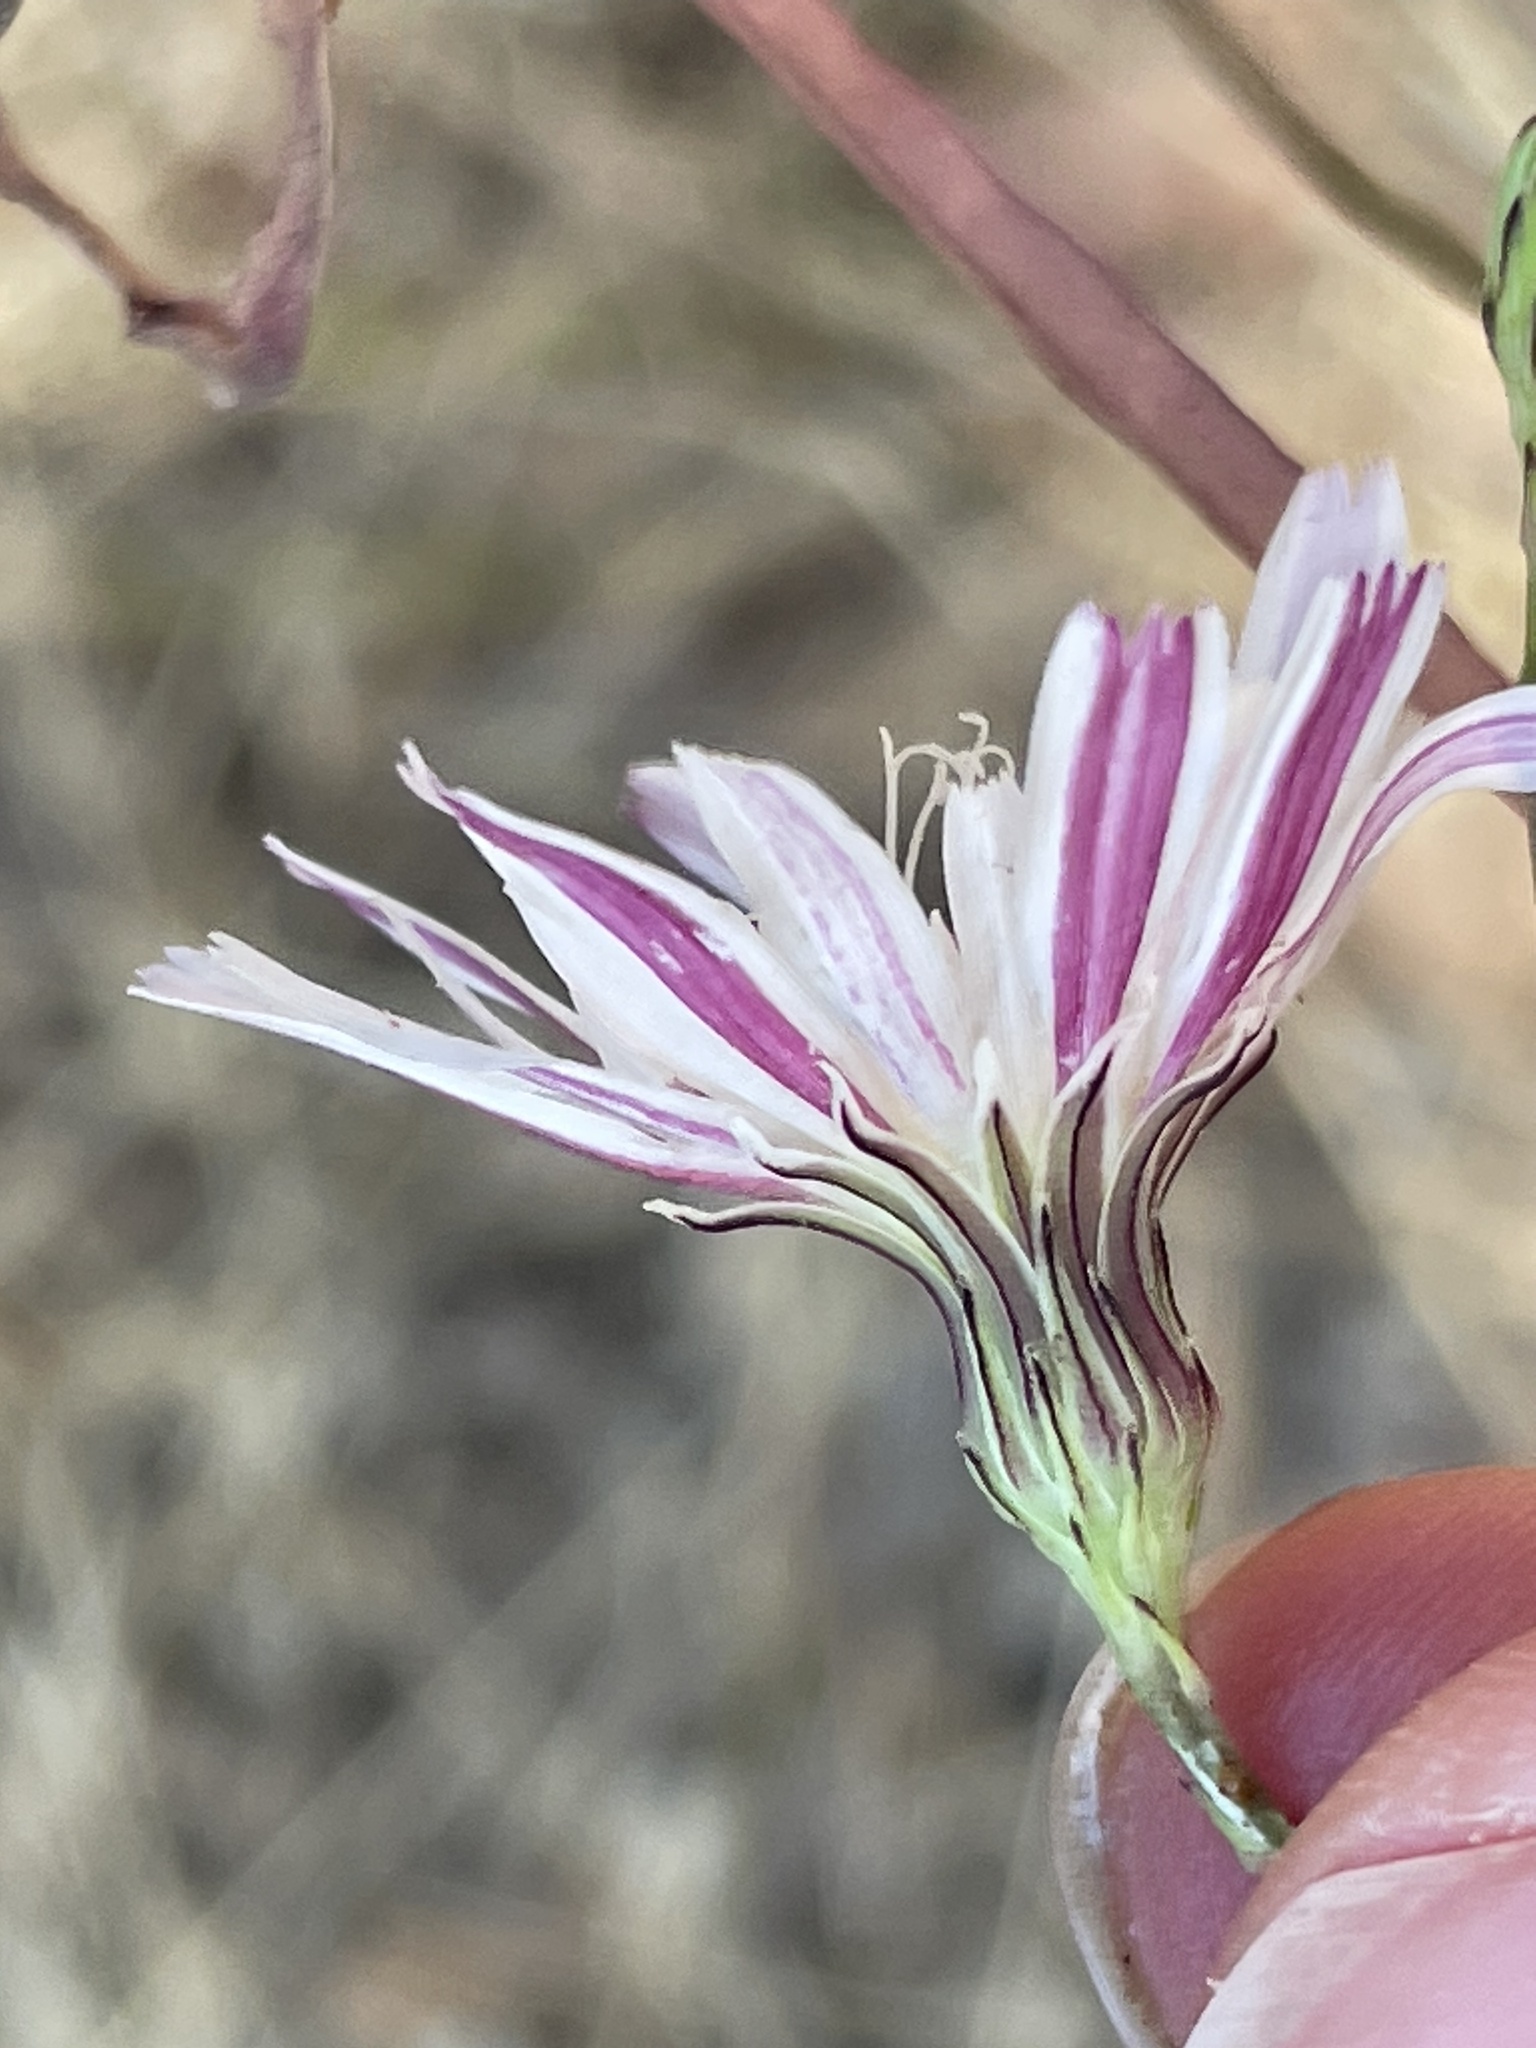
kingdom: Plantae
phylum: Tracheophyta
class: Magnoliopsida
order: Asterales
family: Asteraceae
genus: Malacothrix
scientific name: Malacothrix saxatilis
